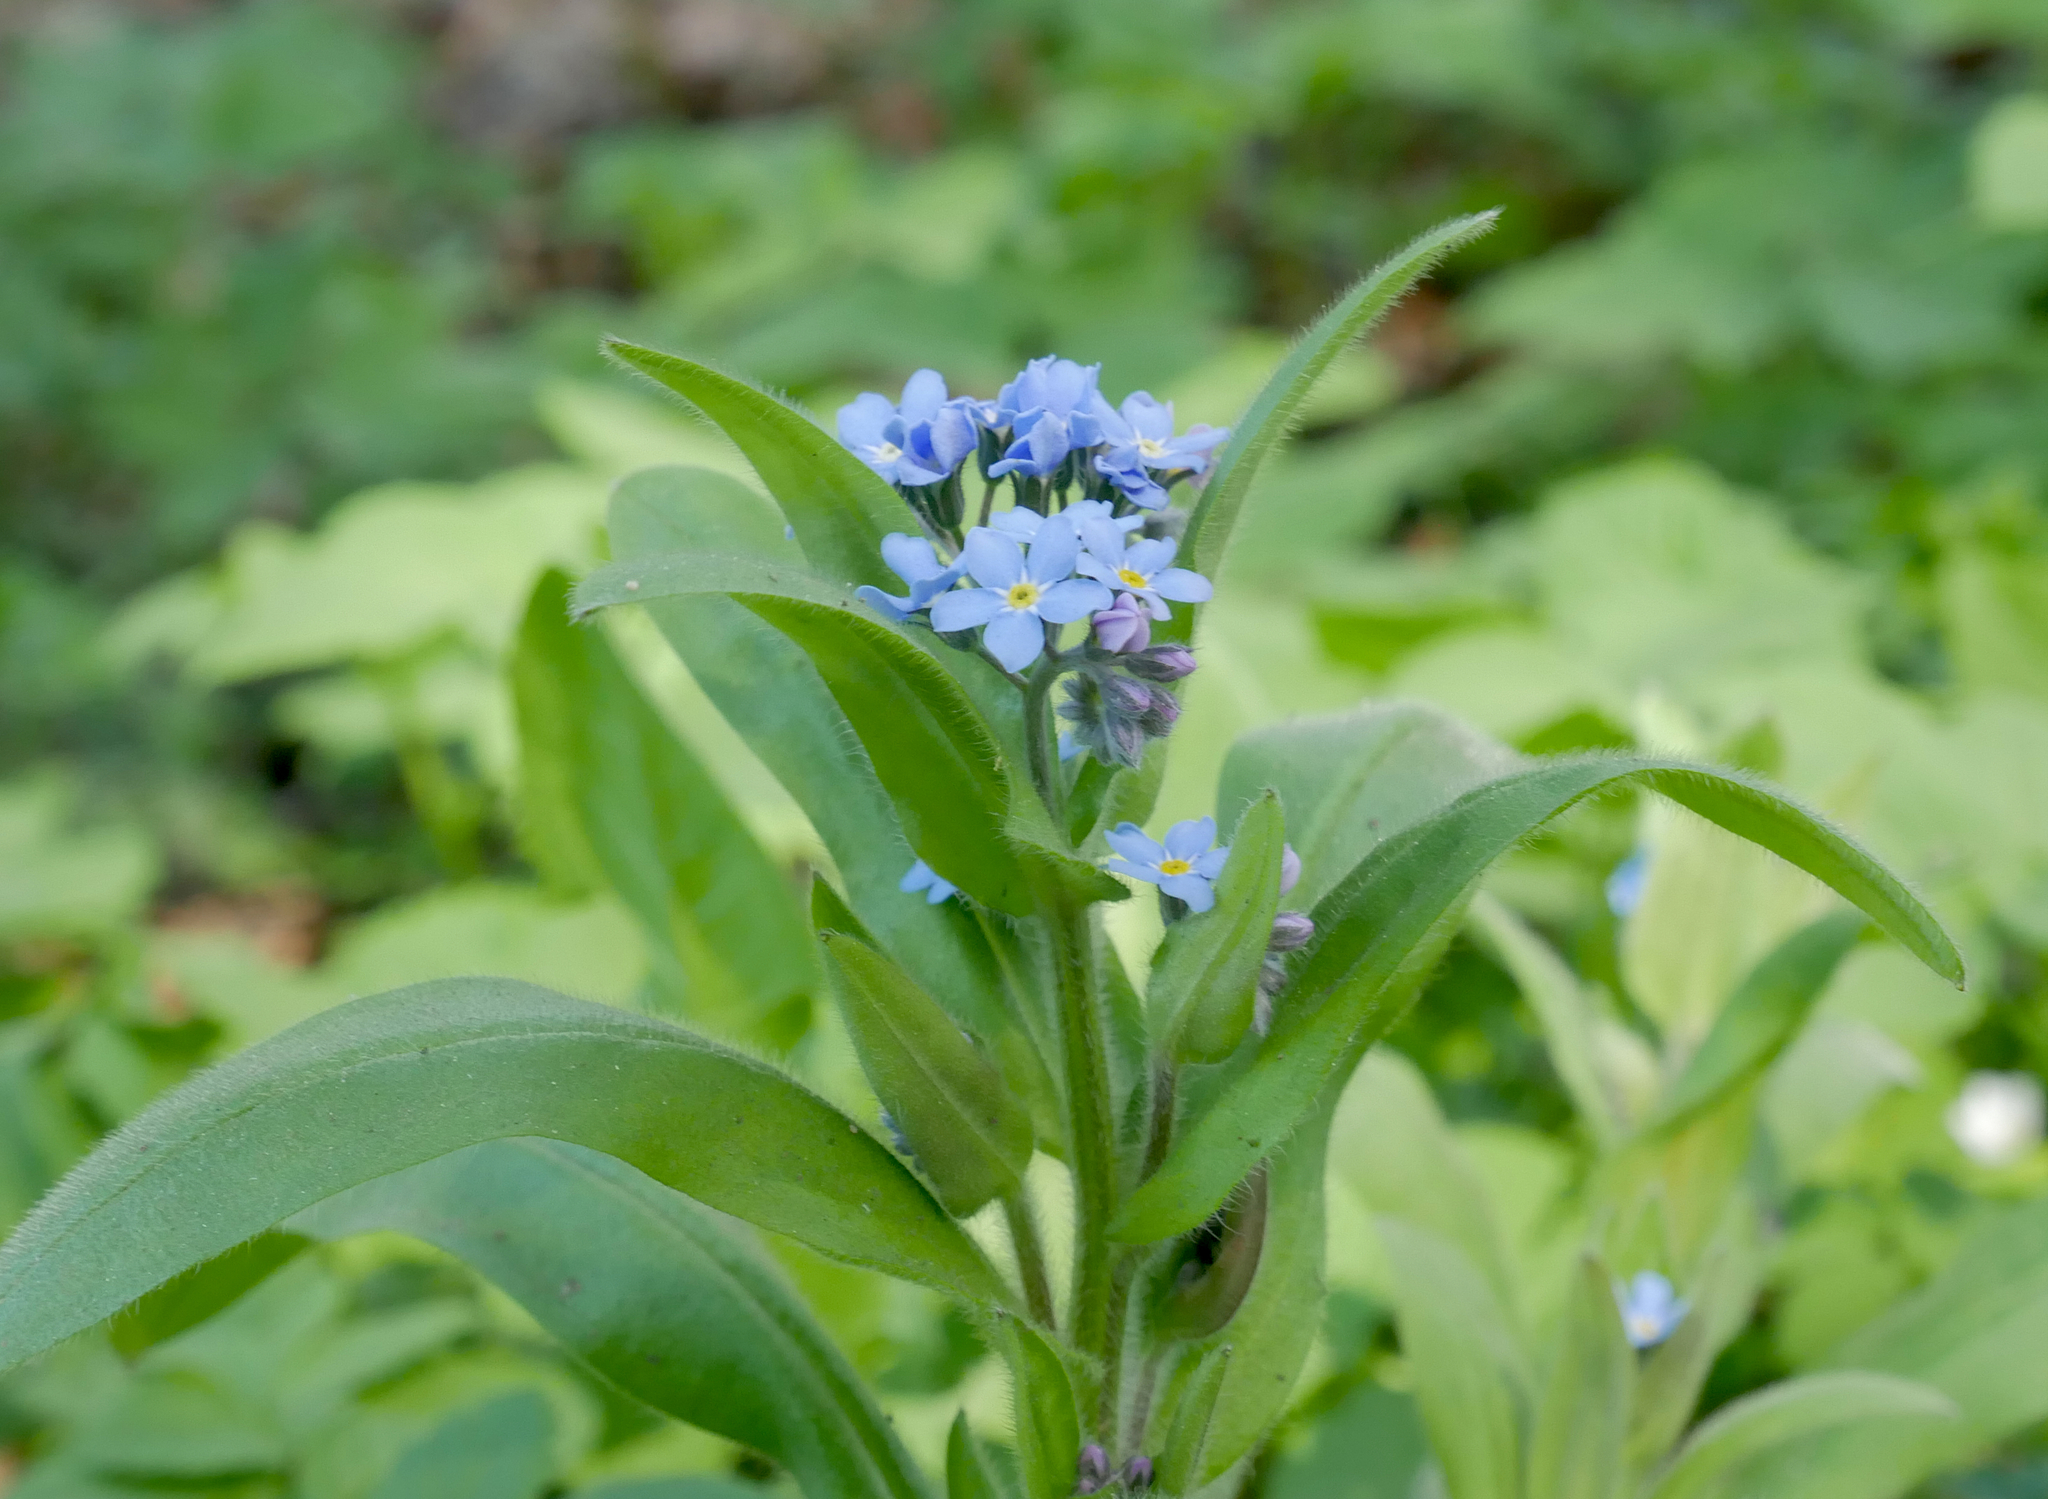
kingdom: Plantae
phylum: Tracheophyta
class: Magnoliopsida
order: Boraginales
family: Boraginaceae
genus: Myosotis
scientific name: Myosotis sylvatica
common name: Wood forget-me-not
